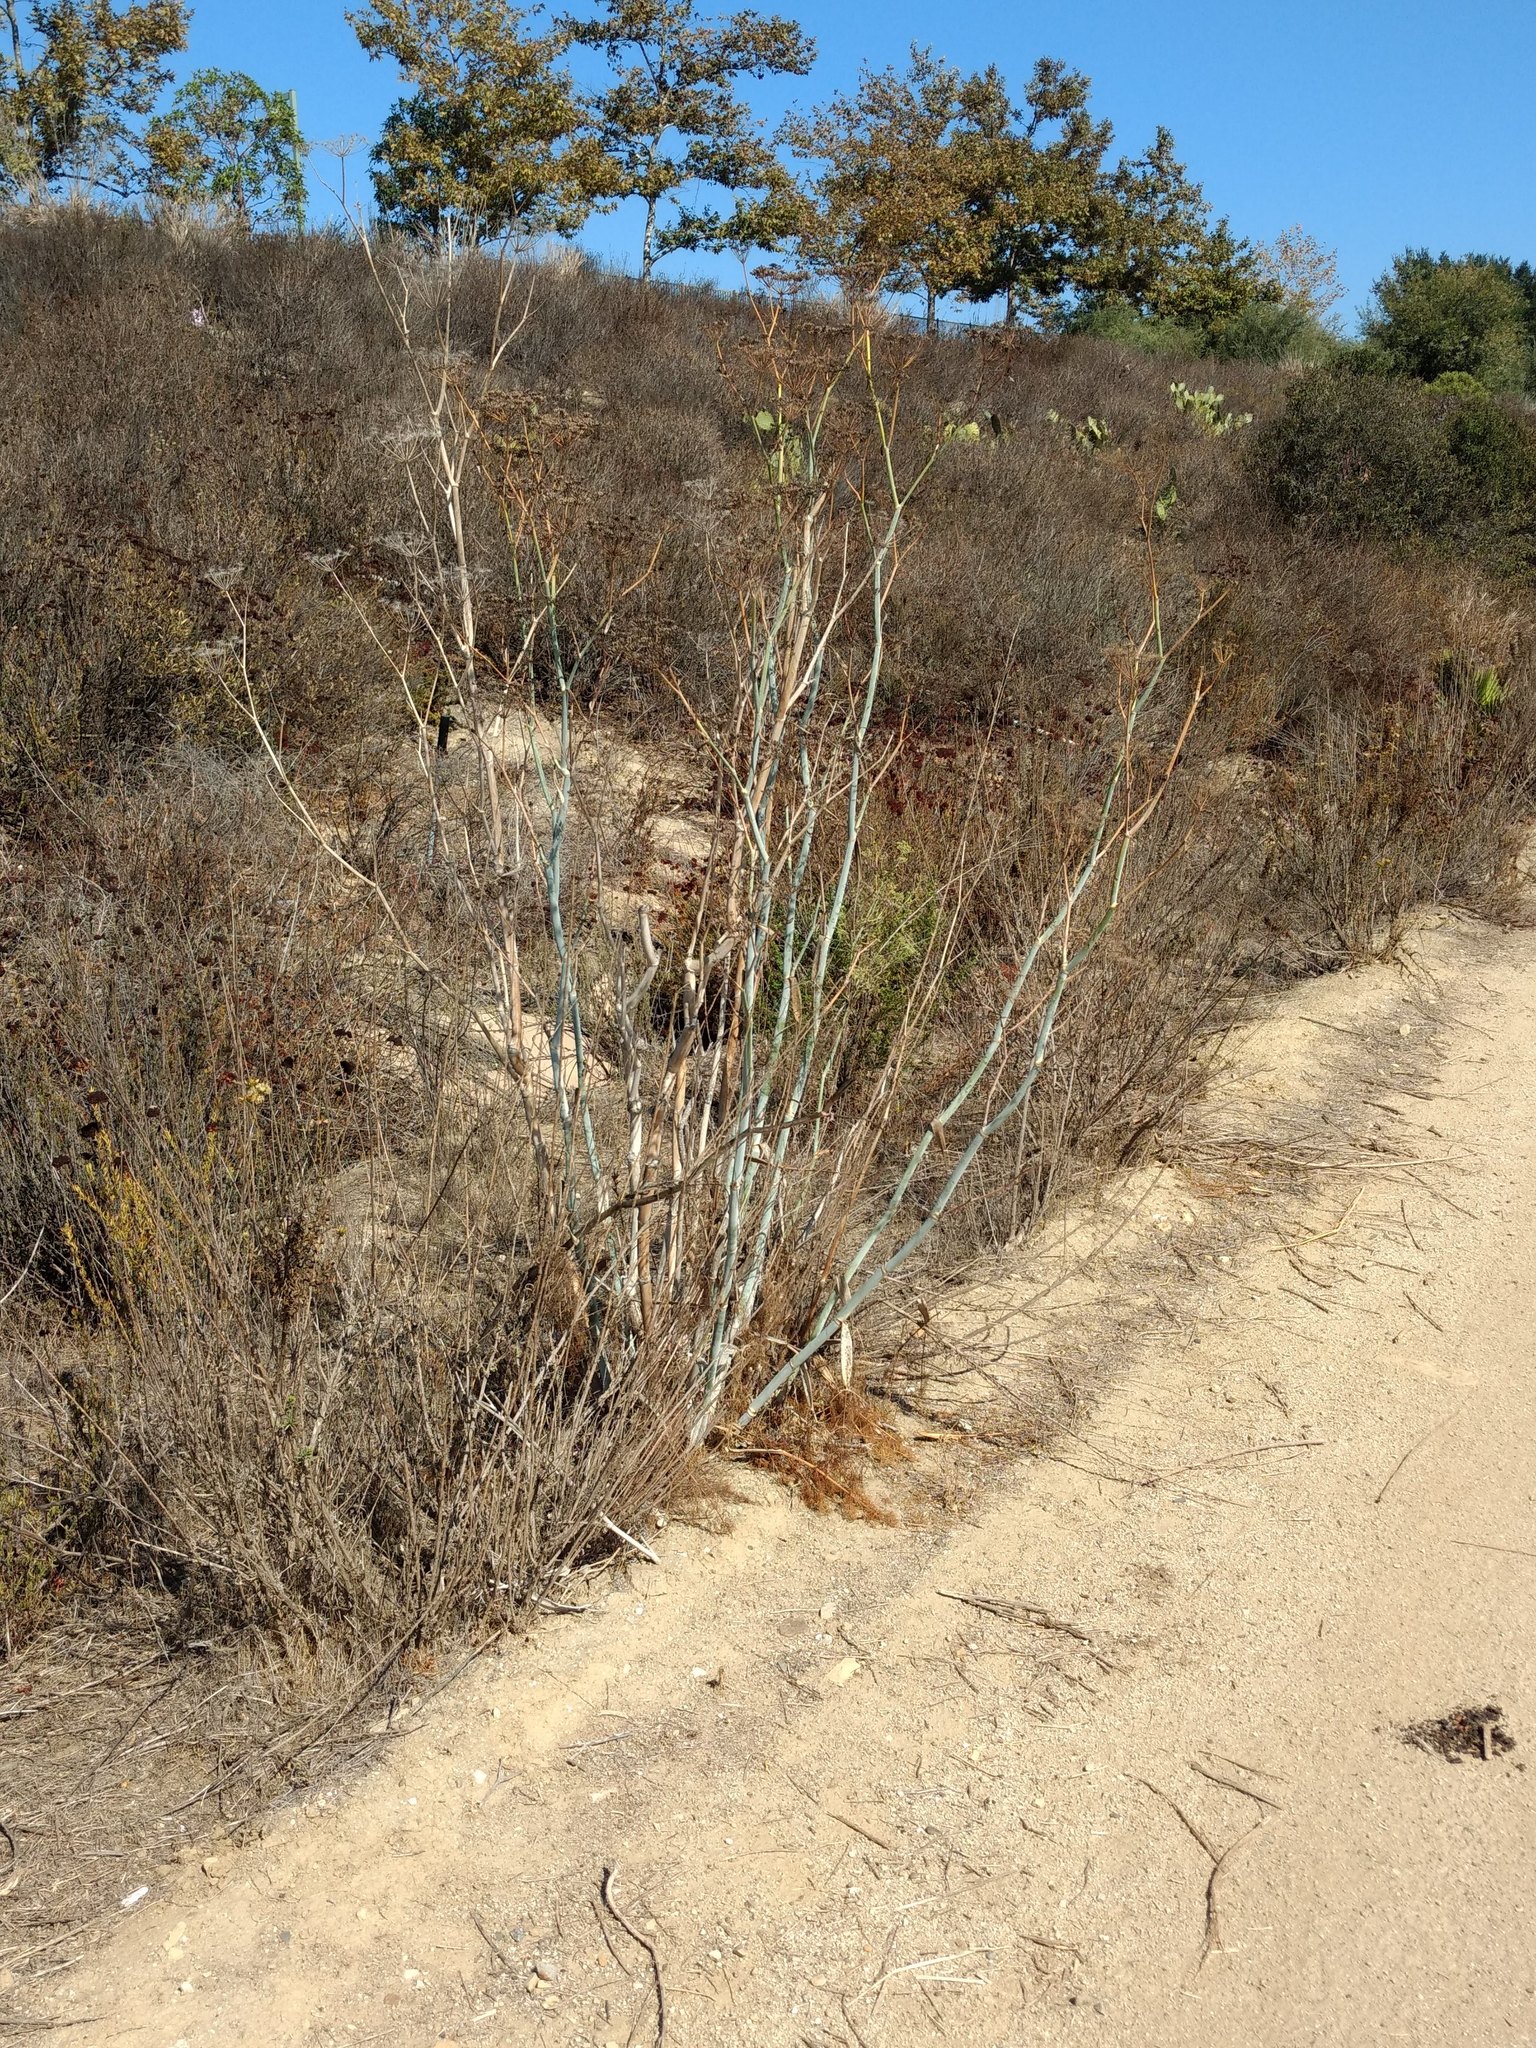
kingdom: Plantae
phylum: Tracheophyta
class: Magnoliopsida
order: Apiales
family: Apiaceae
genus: Foeniculum
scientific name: Foeniculum vulgare
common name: Fennel
